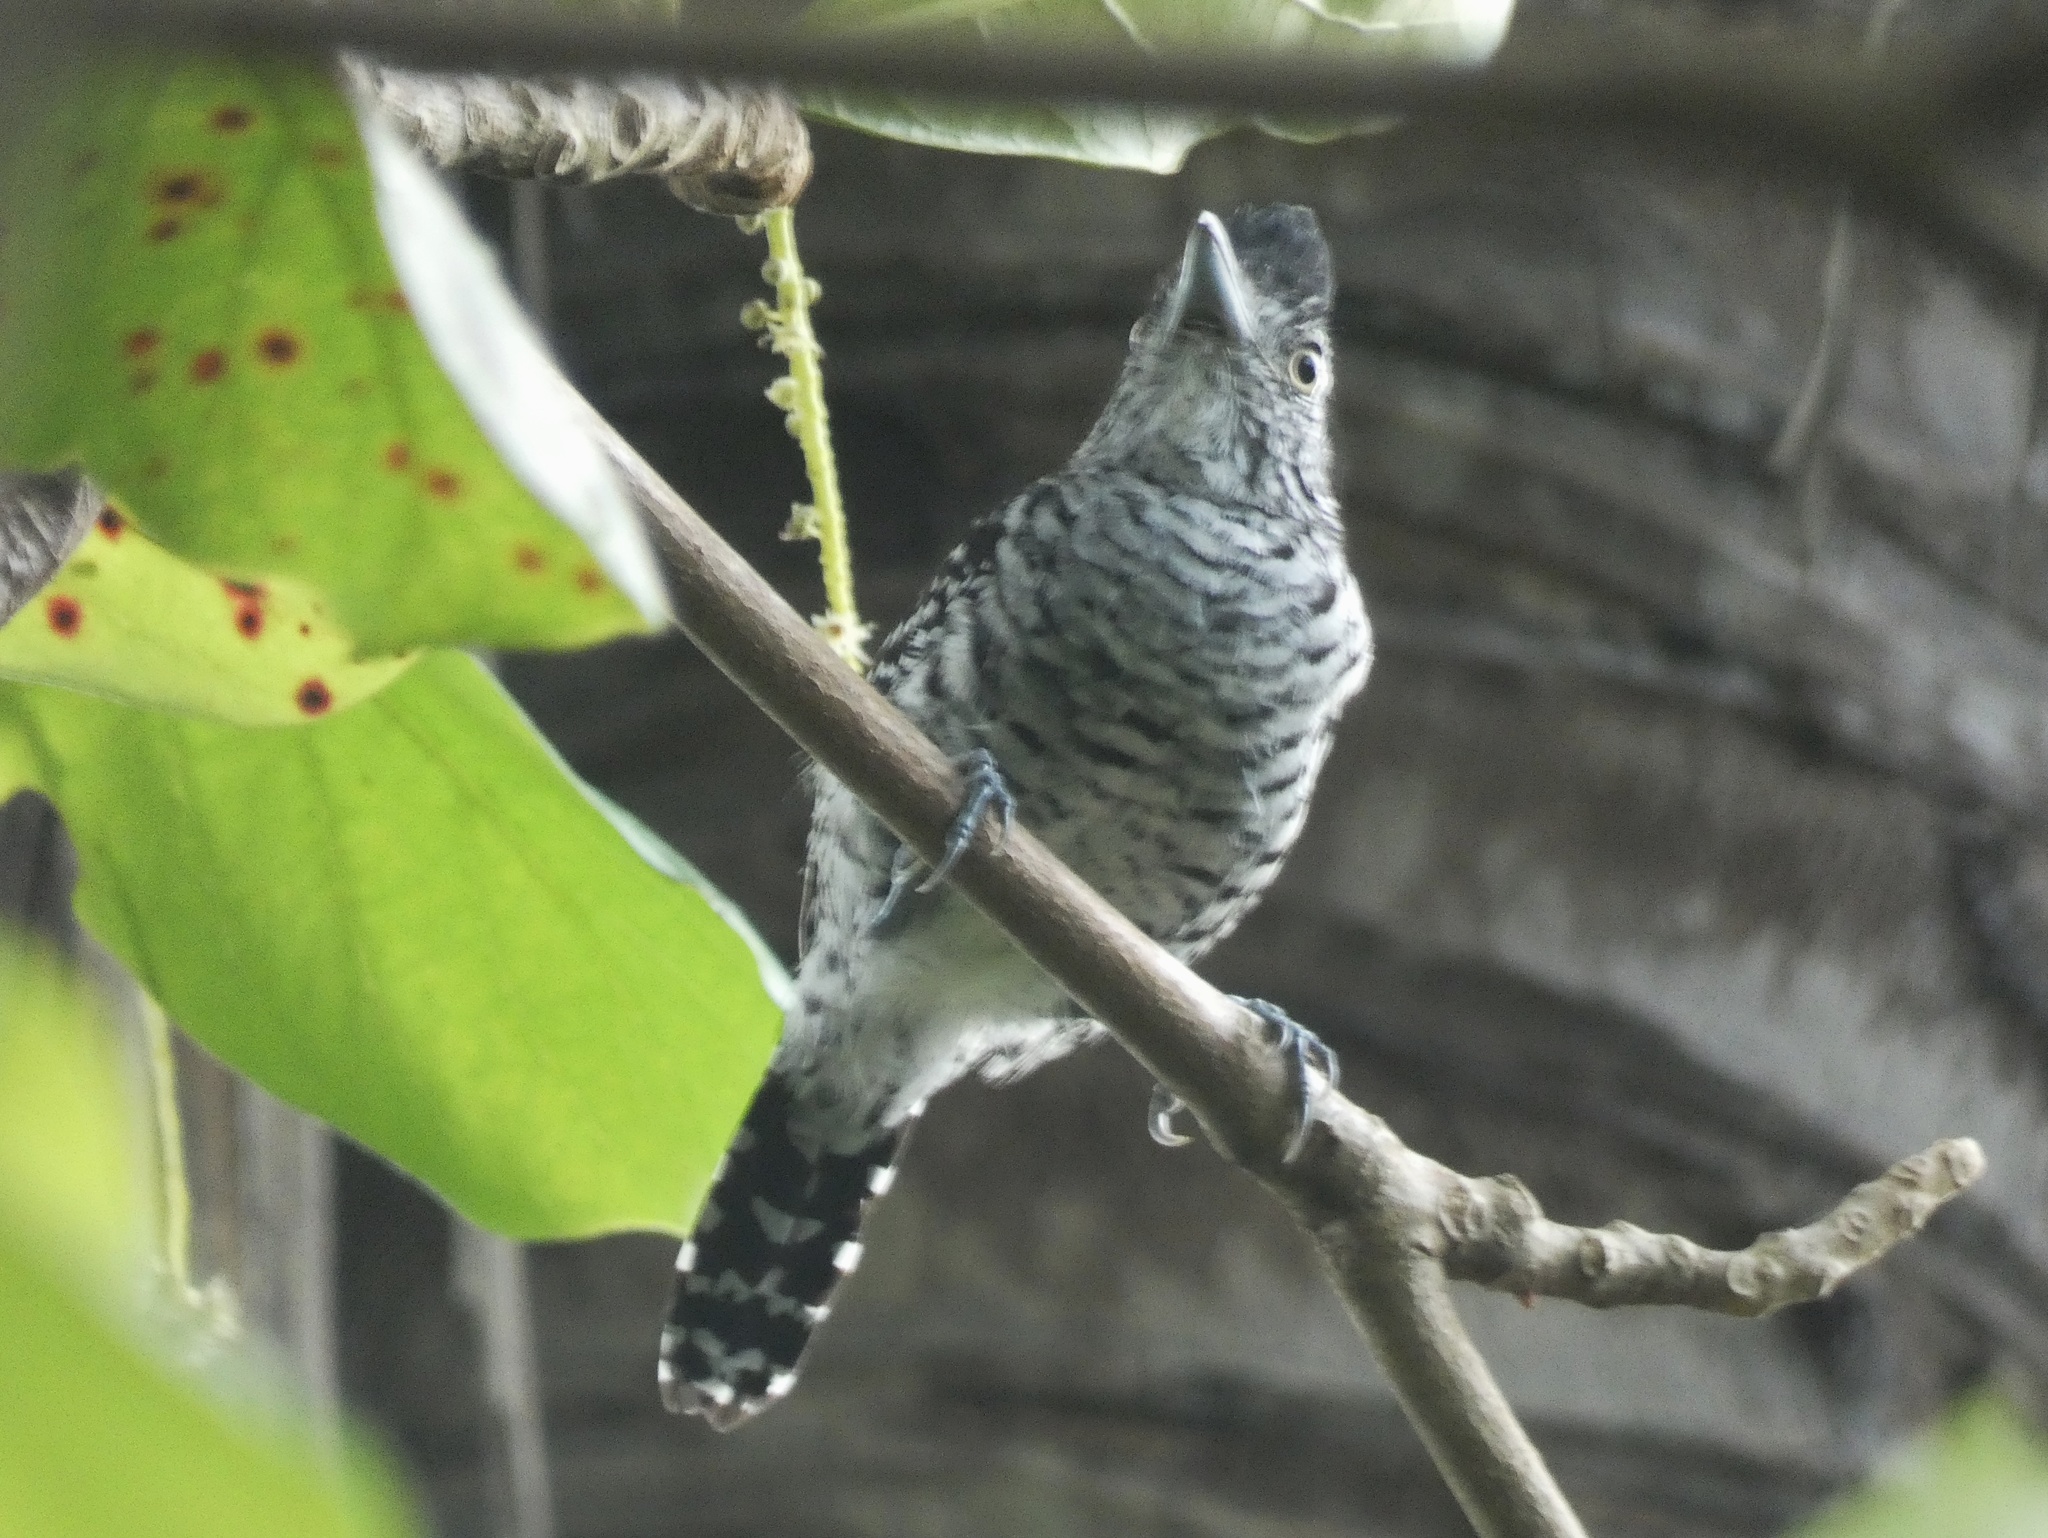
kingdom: Animalia
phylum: Chordata
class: Aves
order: Passeriformes
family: Thamnophilidae
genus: Thamnophilus
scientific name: Thamnophilus doliatus
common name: Barred antshrike
